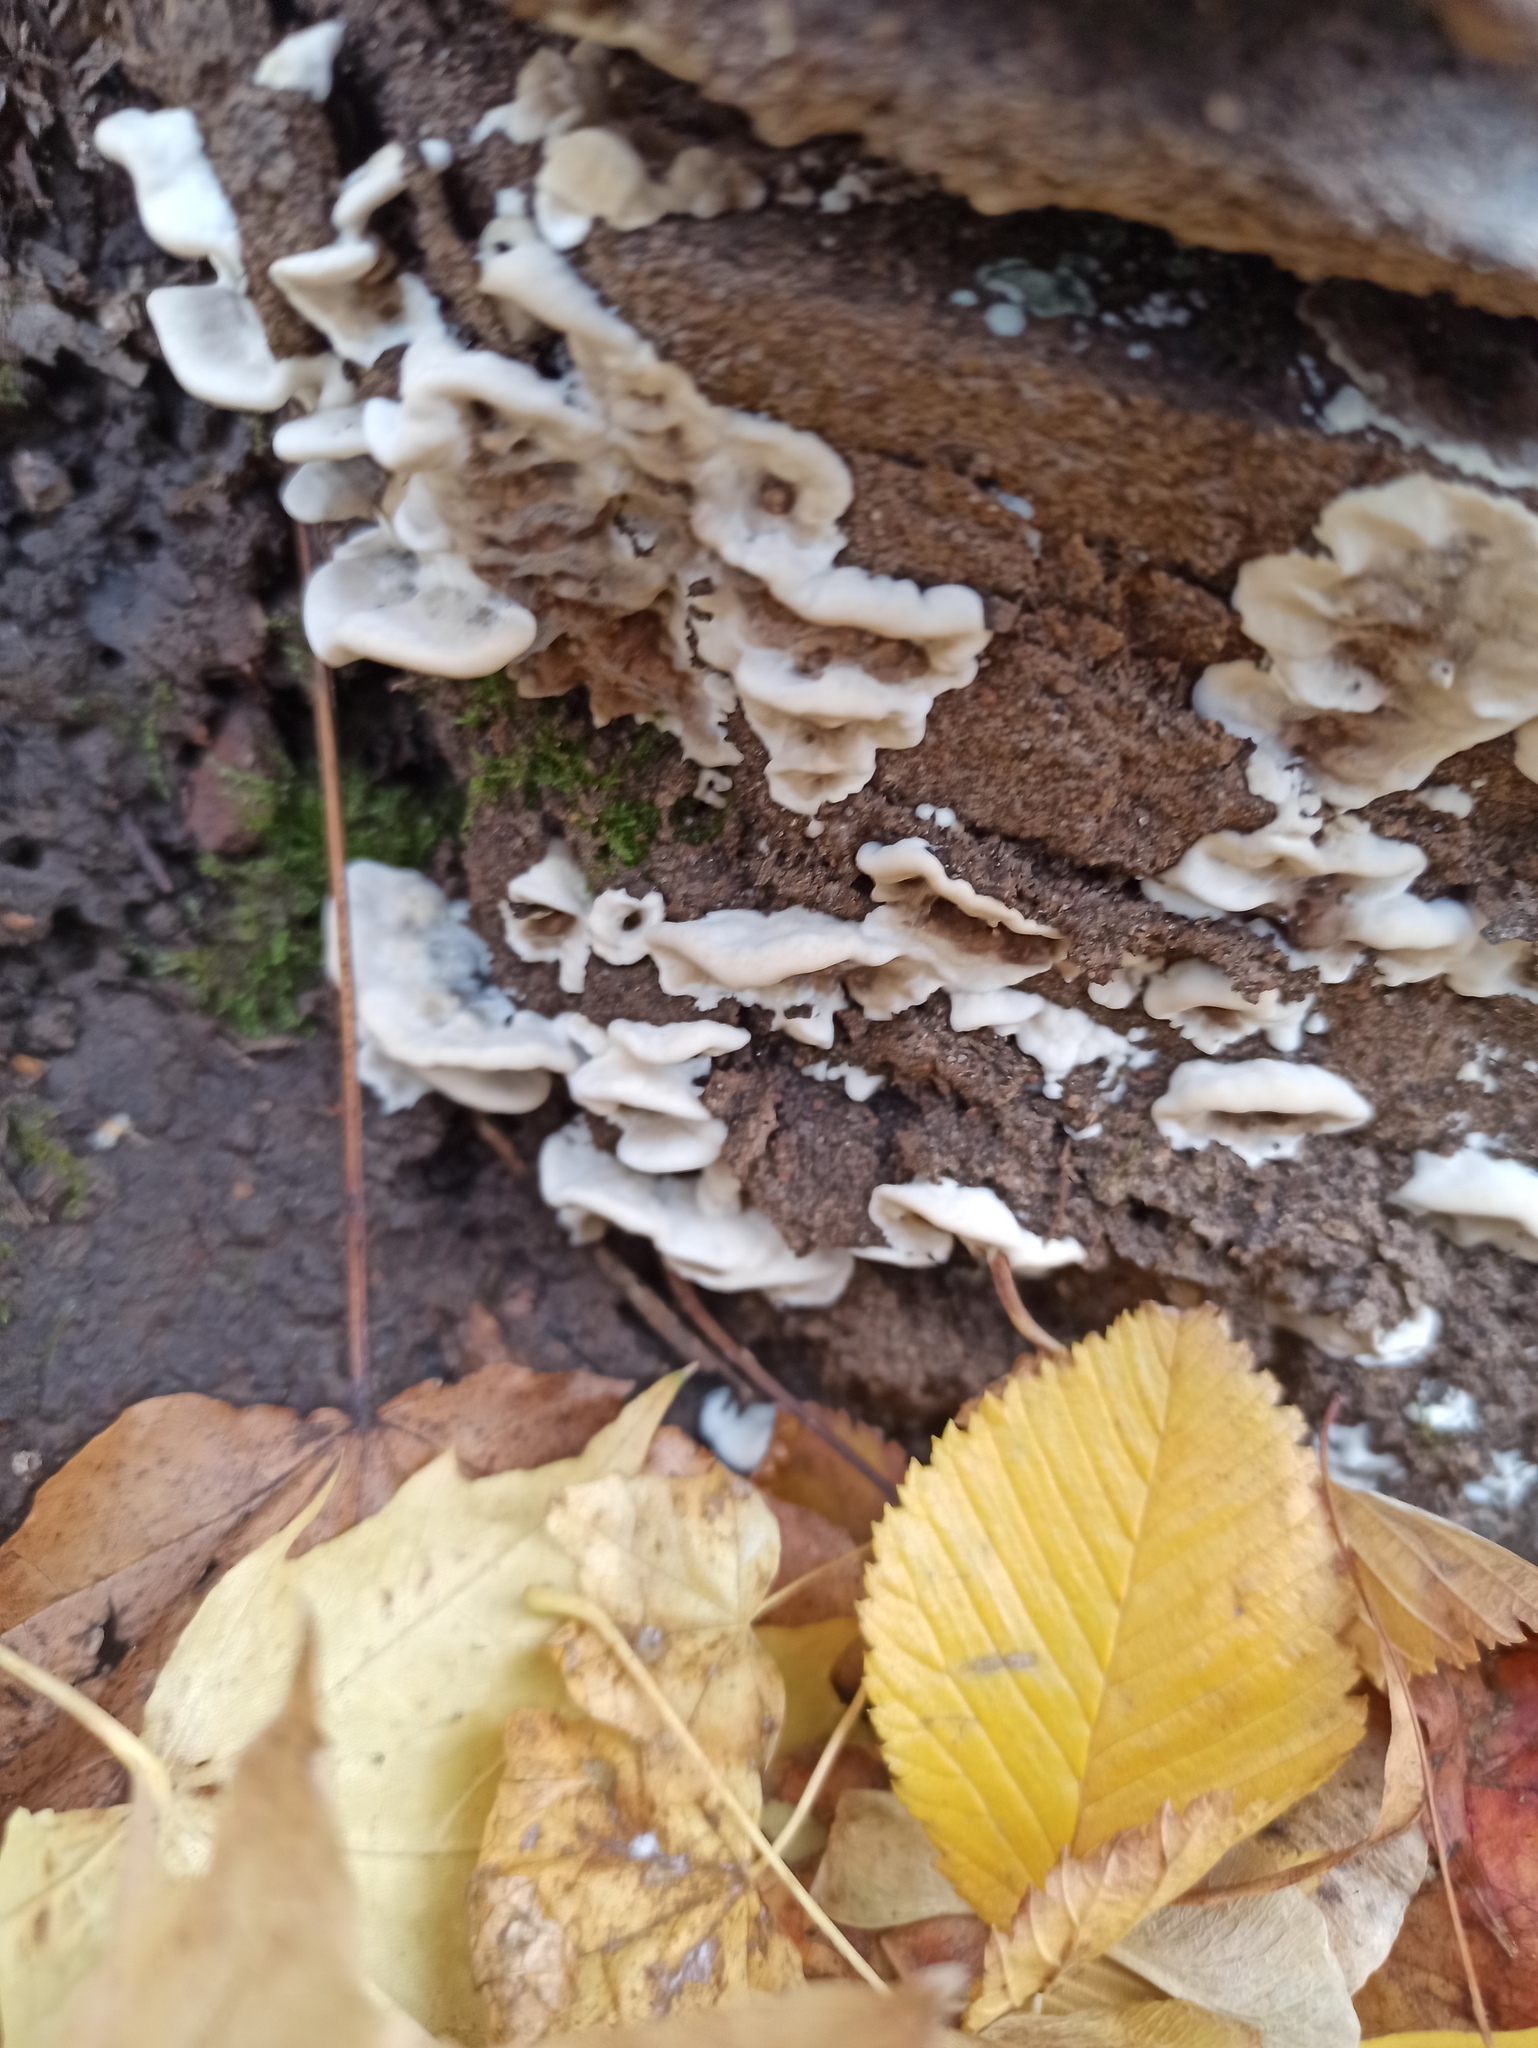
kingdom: Fungi
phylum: Basidiomycota
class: Agaricomycetes
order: Polyporales
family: Phanerochaetaceae
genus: Bjerkandera
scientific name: Bjerkandera adusta
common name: Smoky bracket
